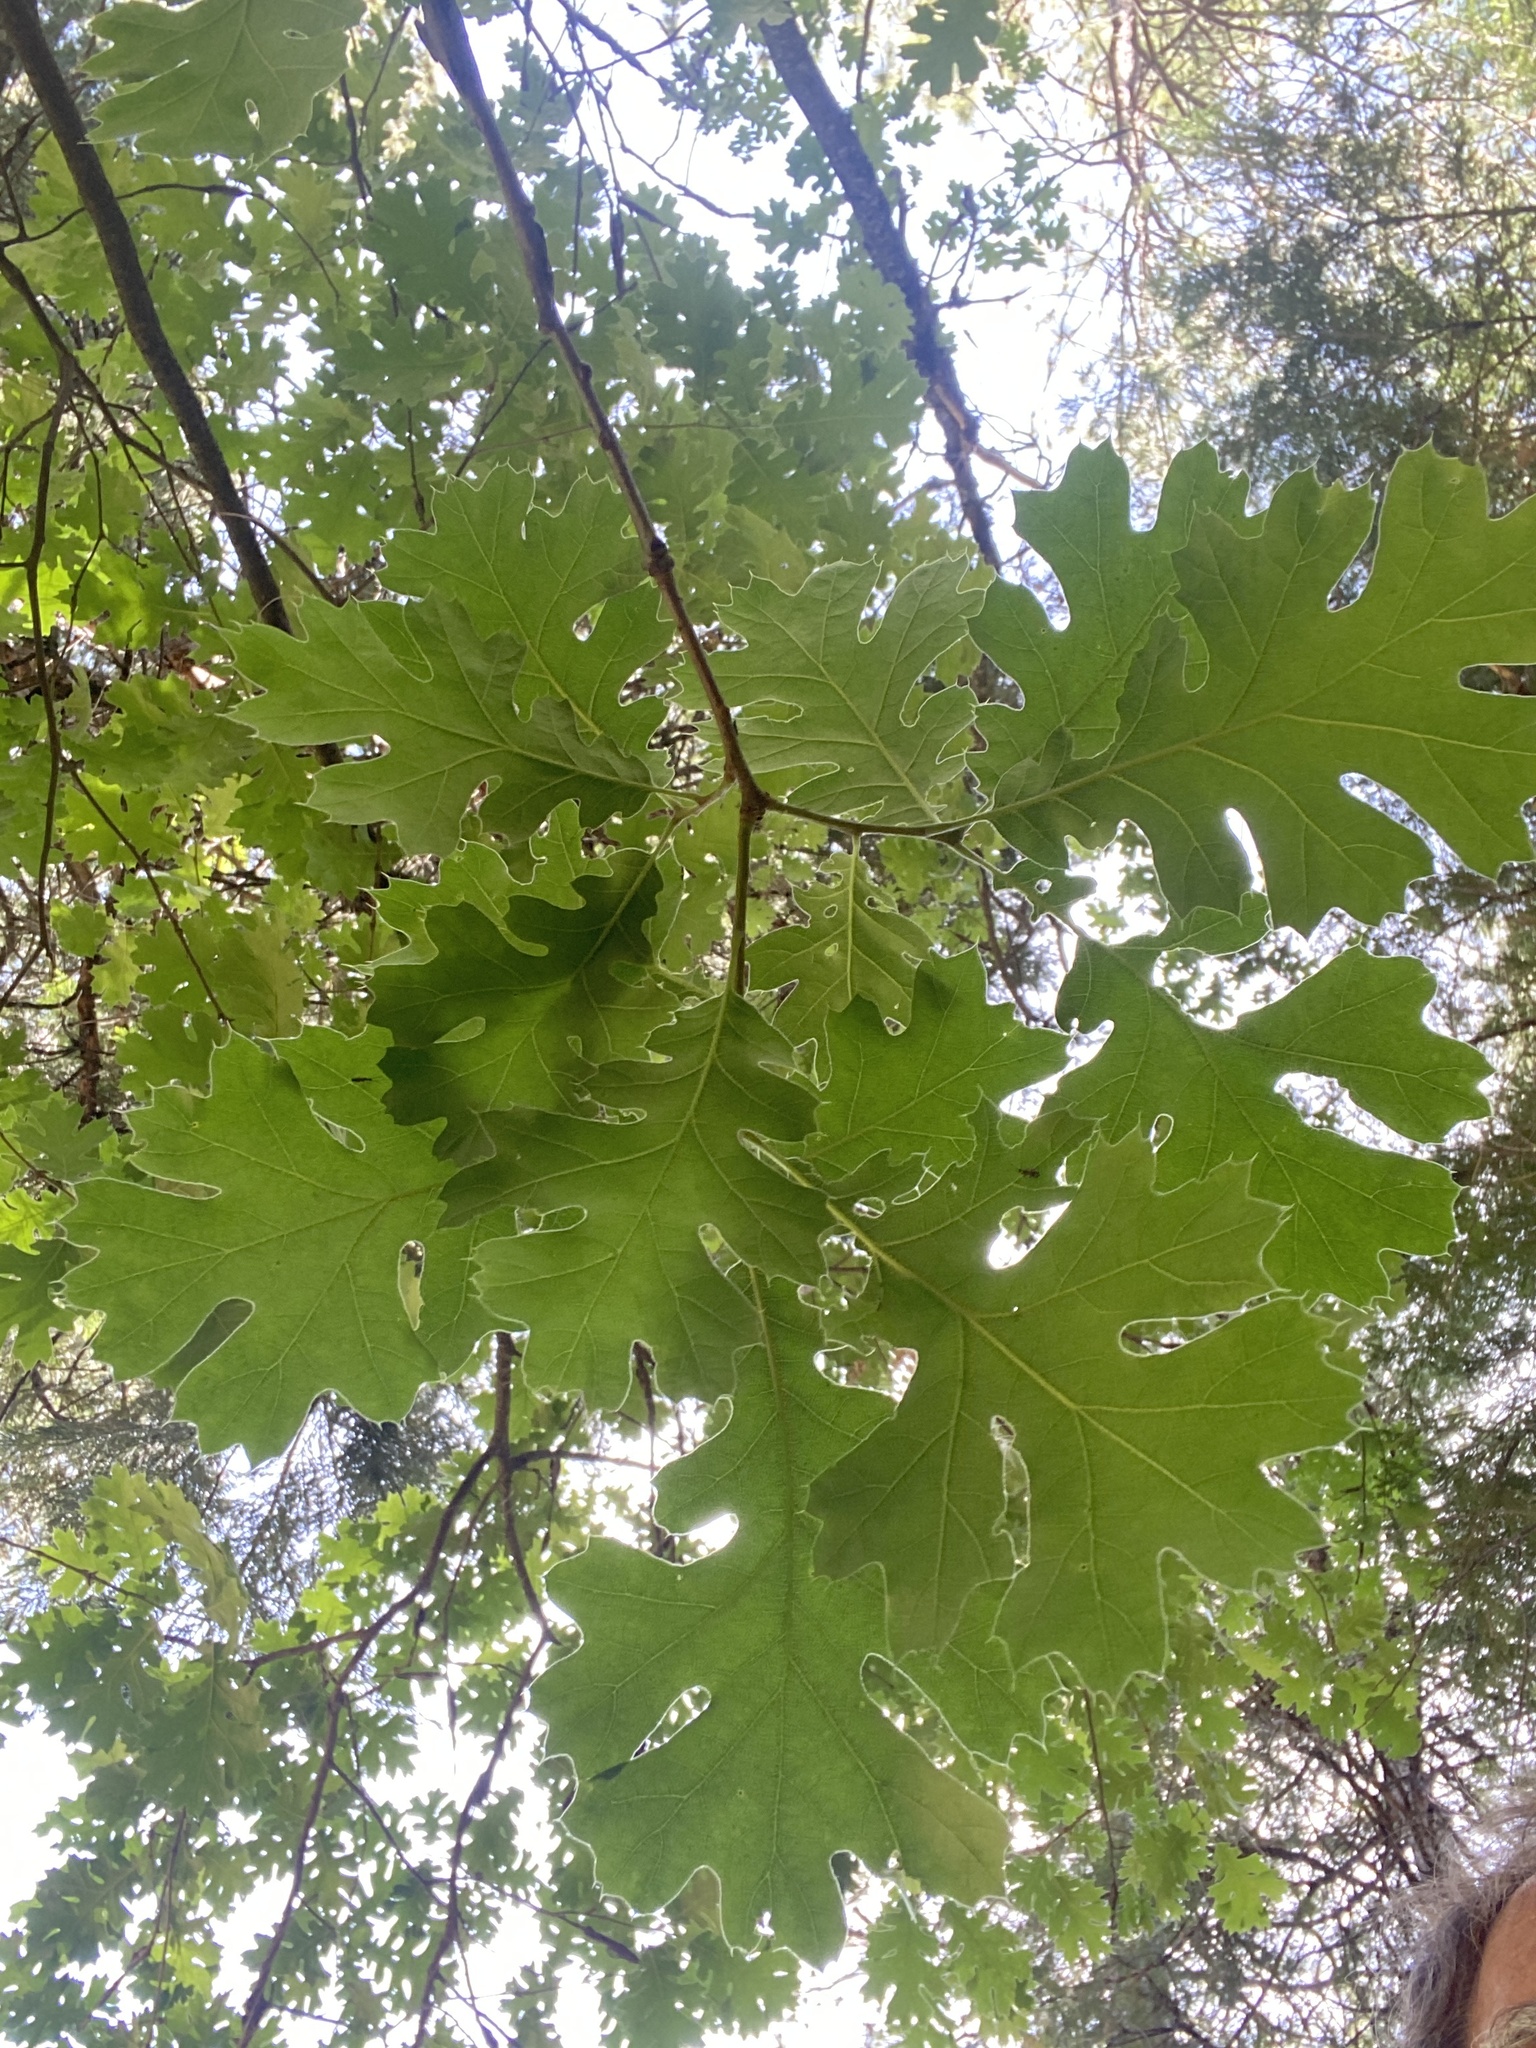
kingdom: Plantae
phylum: Tracheophyta
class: Magnoliopsida
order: Fagales
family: Fagaceae
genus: Quercus
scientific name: Quercus kelloggii
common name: California black oak
